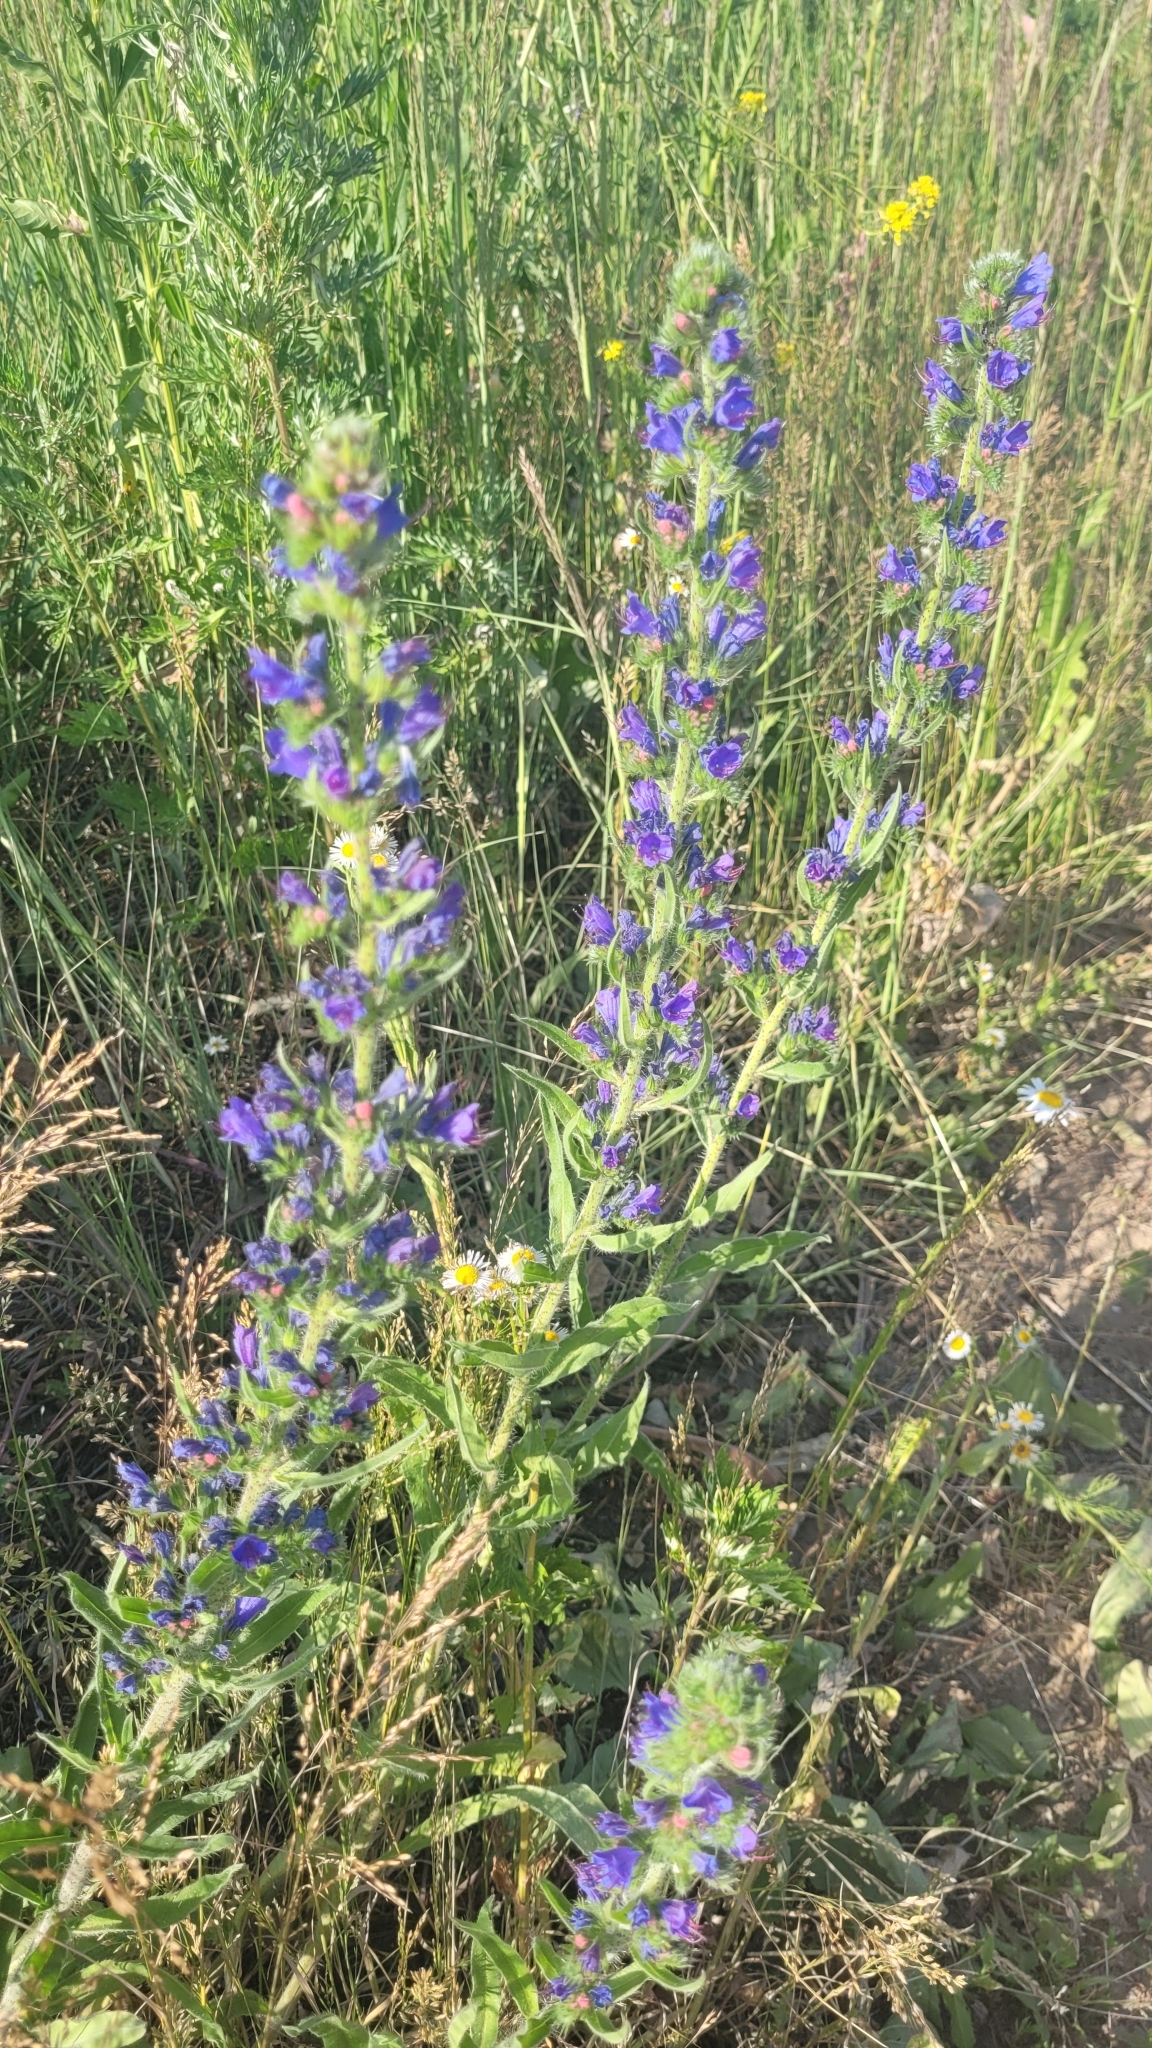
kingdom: Plantae
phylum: Tracheophyta
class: Magnoliopsida
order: Boraginales
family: Boraginaceae
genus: Echium
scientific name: Echium vulgare
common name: Common viper's bugloss
